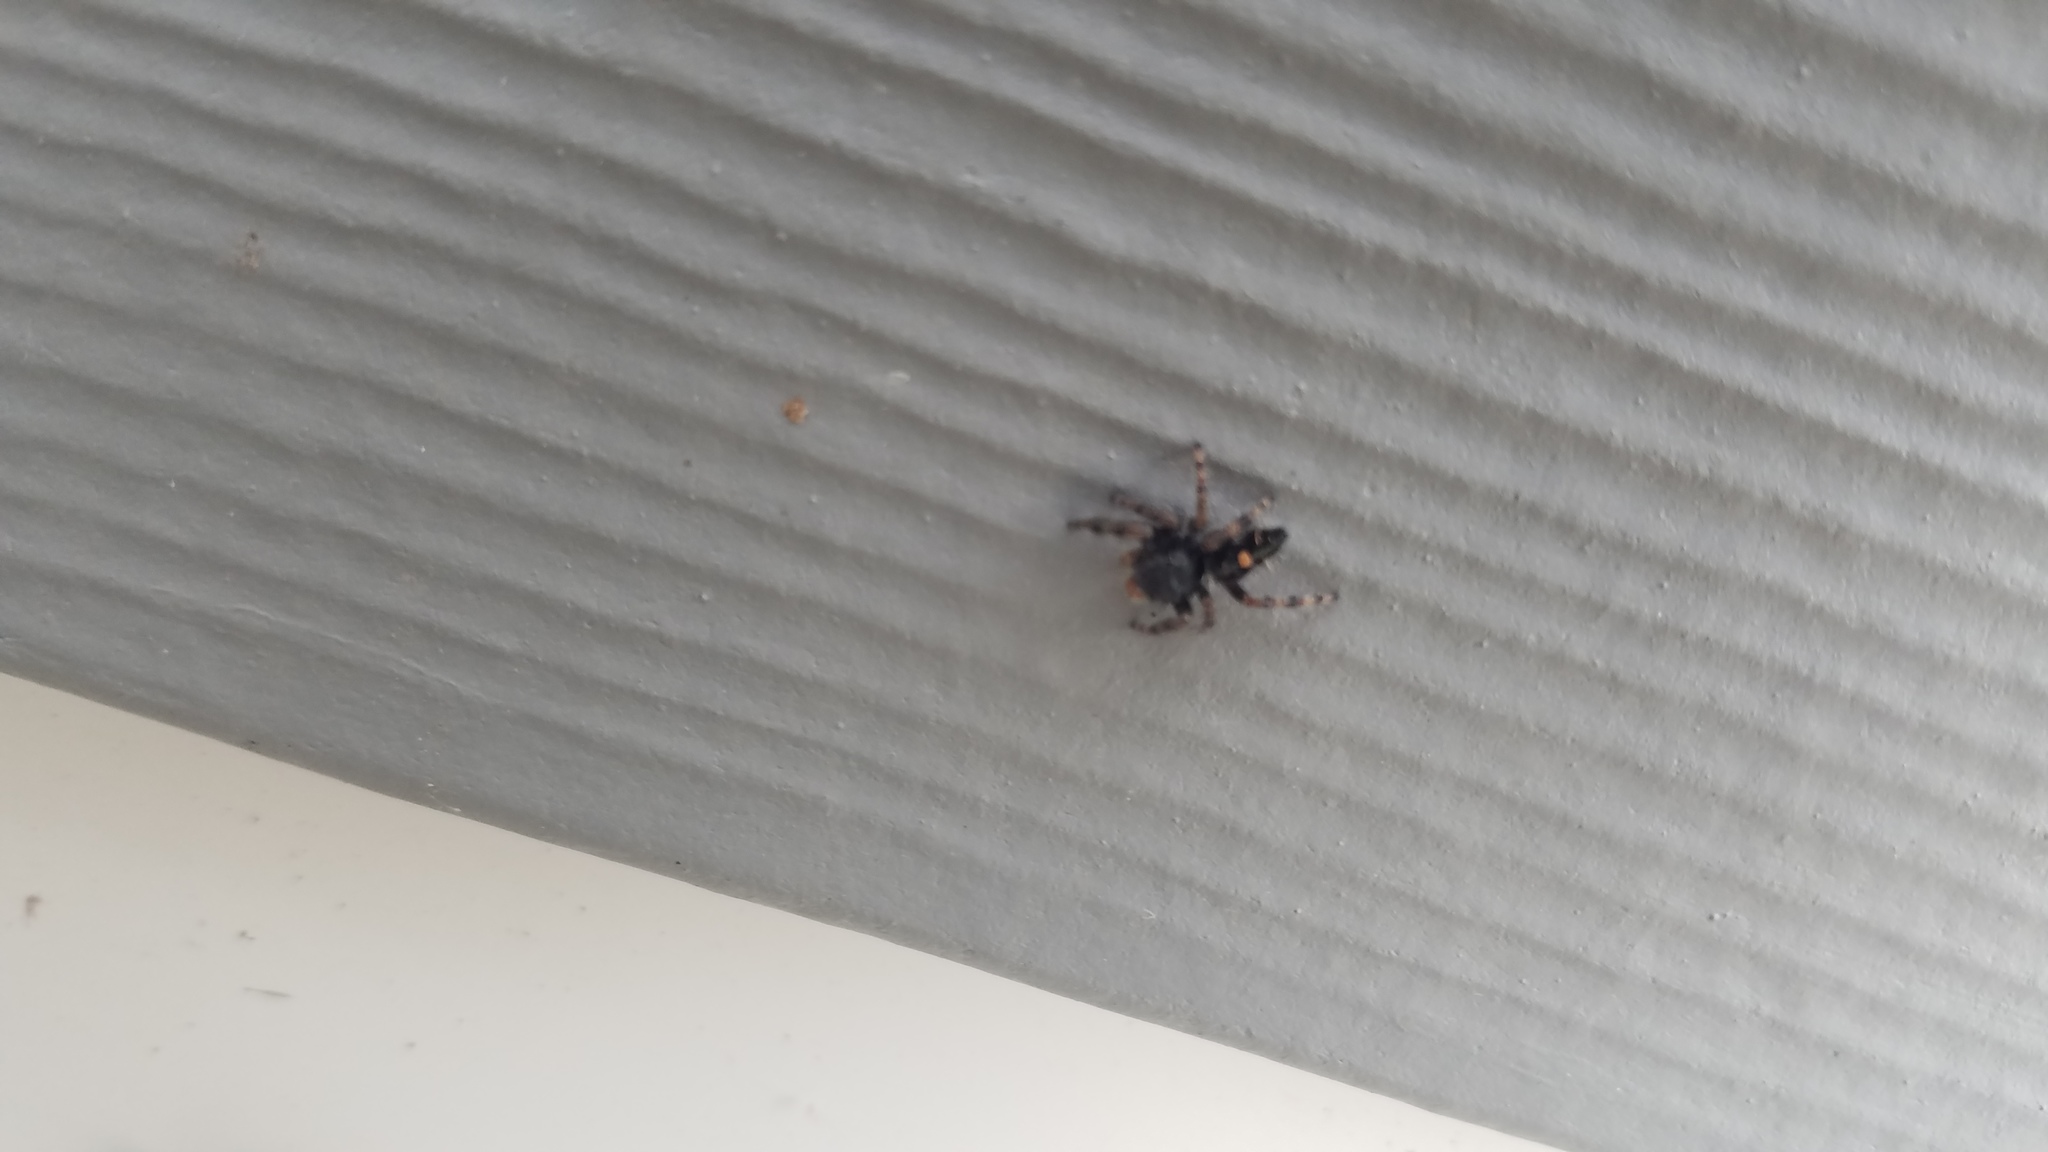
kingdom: Animalia
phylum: Arthropoda
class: Arachnida
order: Araneae
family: Salticidae
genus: Phidippus
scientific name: Phidippus audax
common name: Bold jumper
